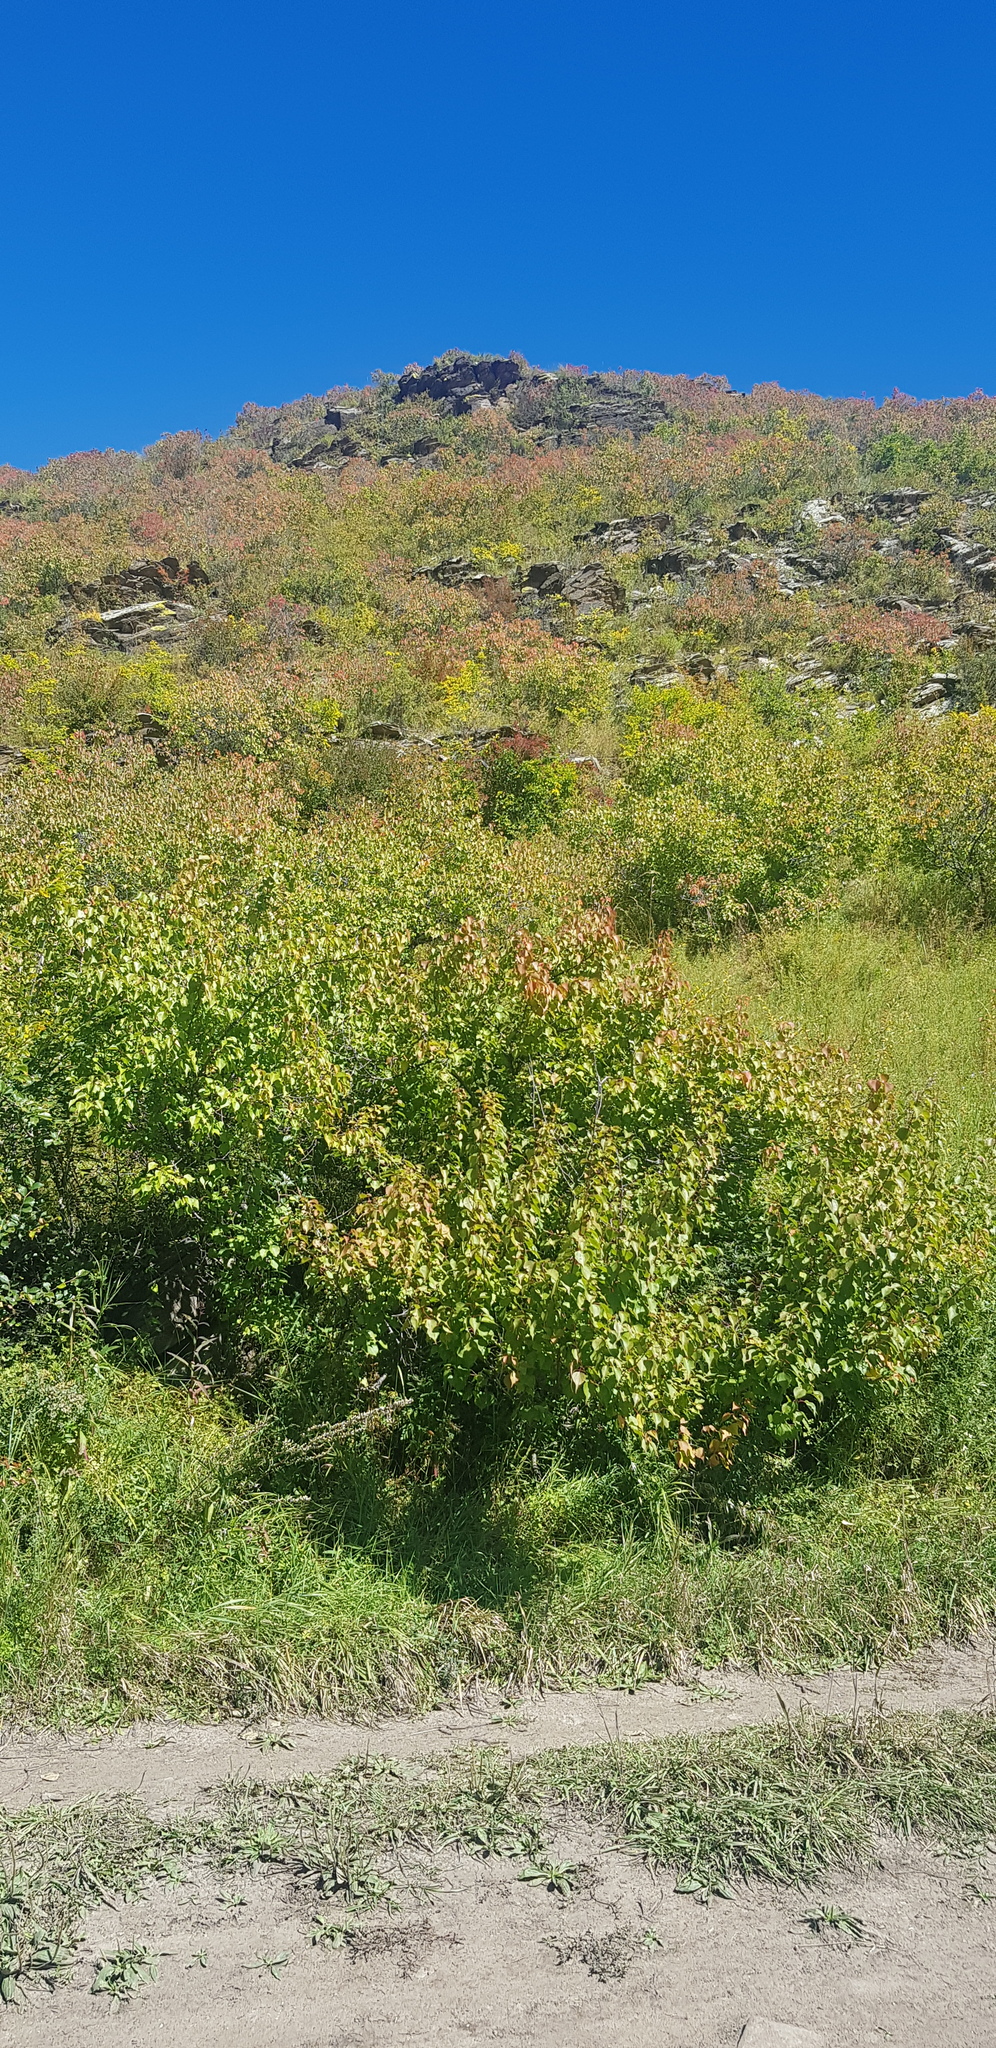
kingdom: Plantae
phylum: Tracheophyta
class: Magnoliopsida
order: Rosales
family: Rosaceae
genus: Prunus
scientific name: Prunus sibirica
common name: Siberian apricot
